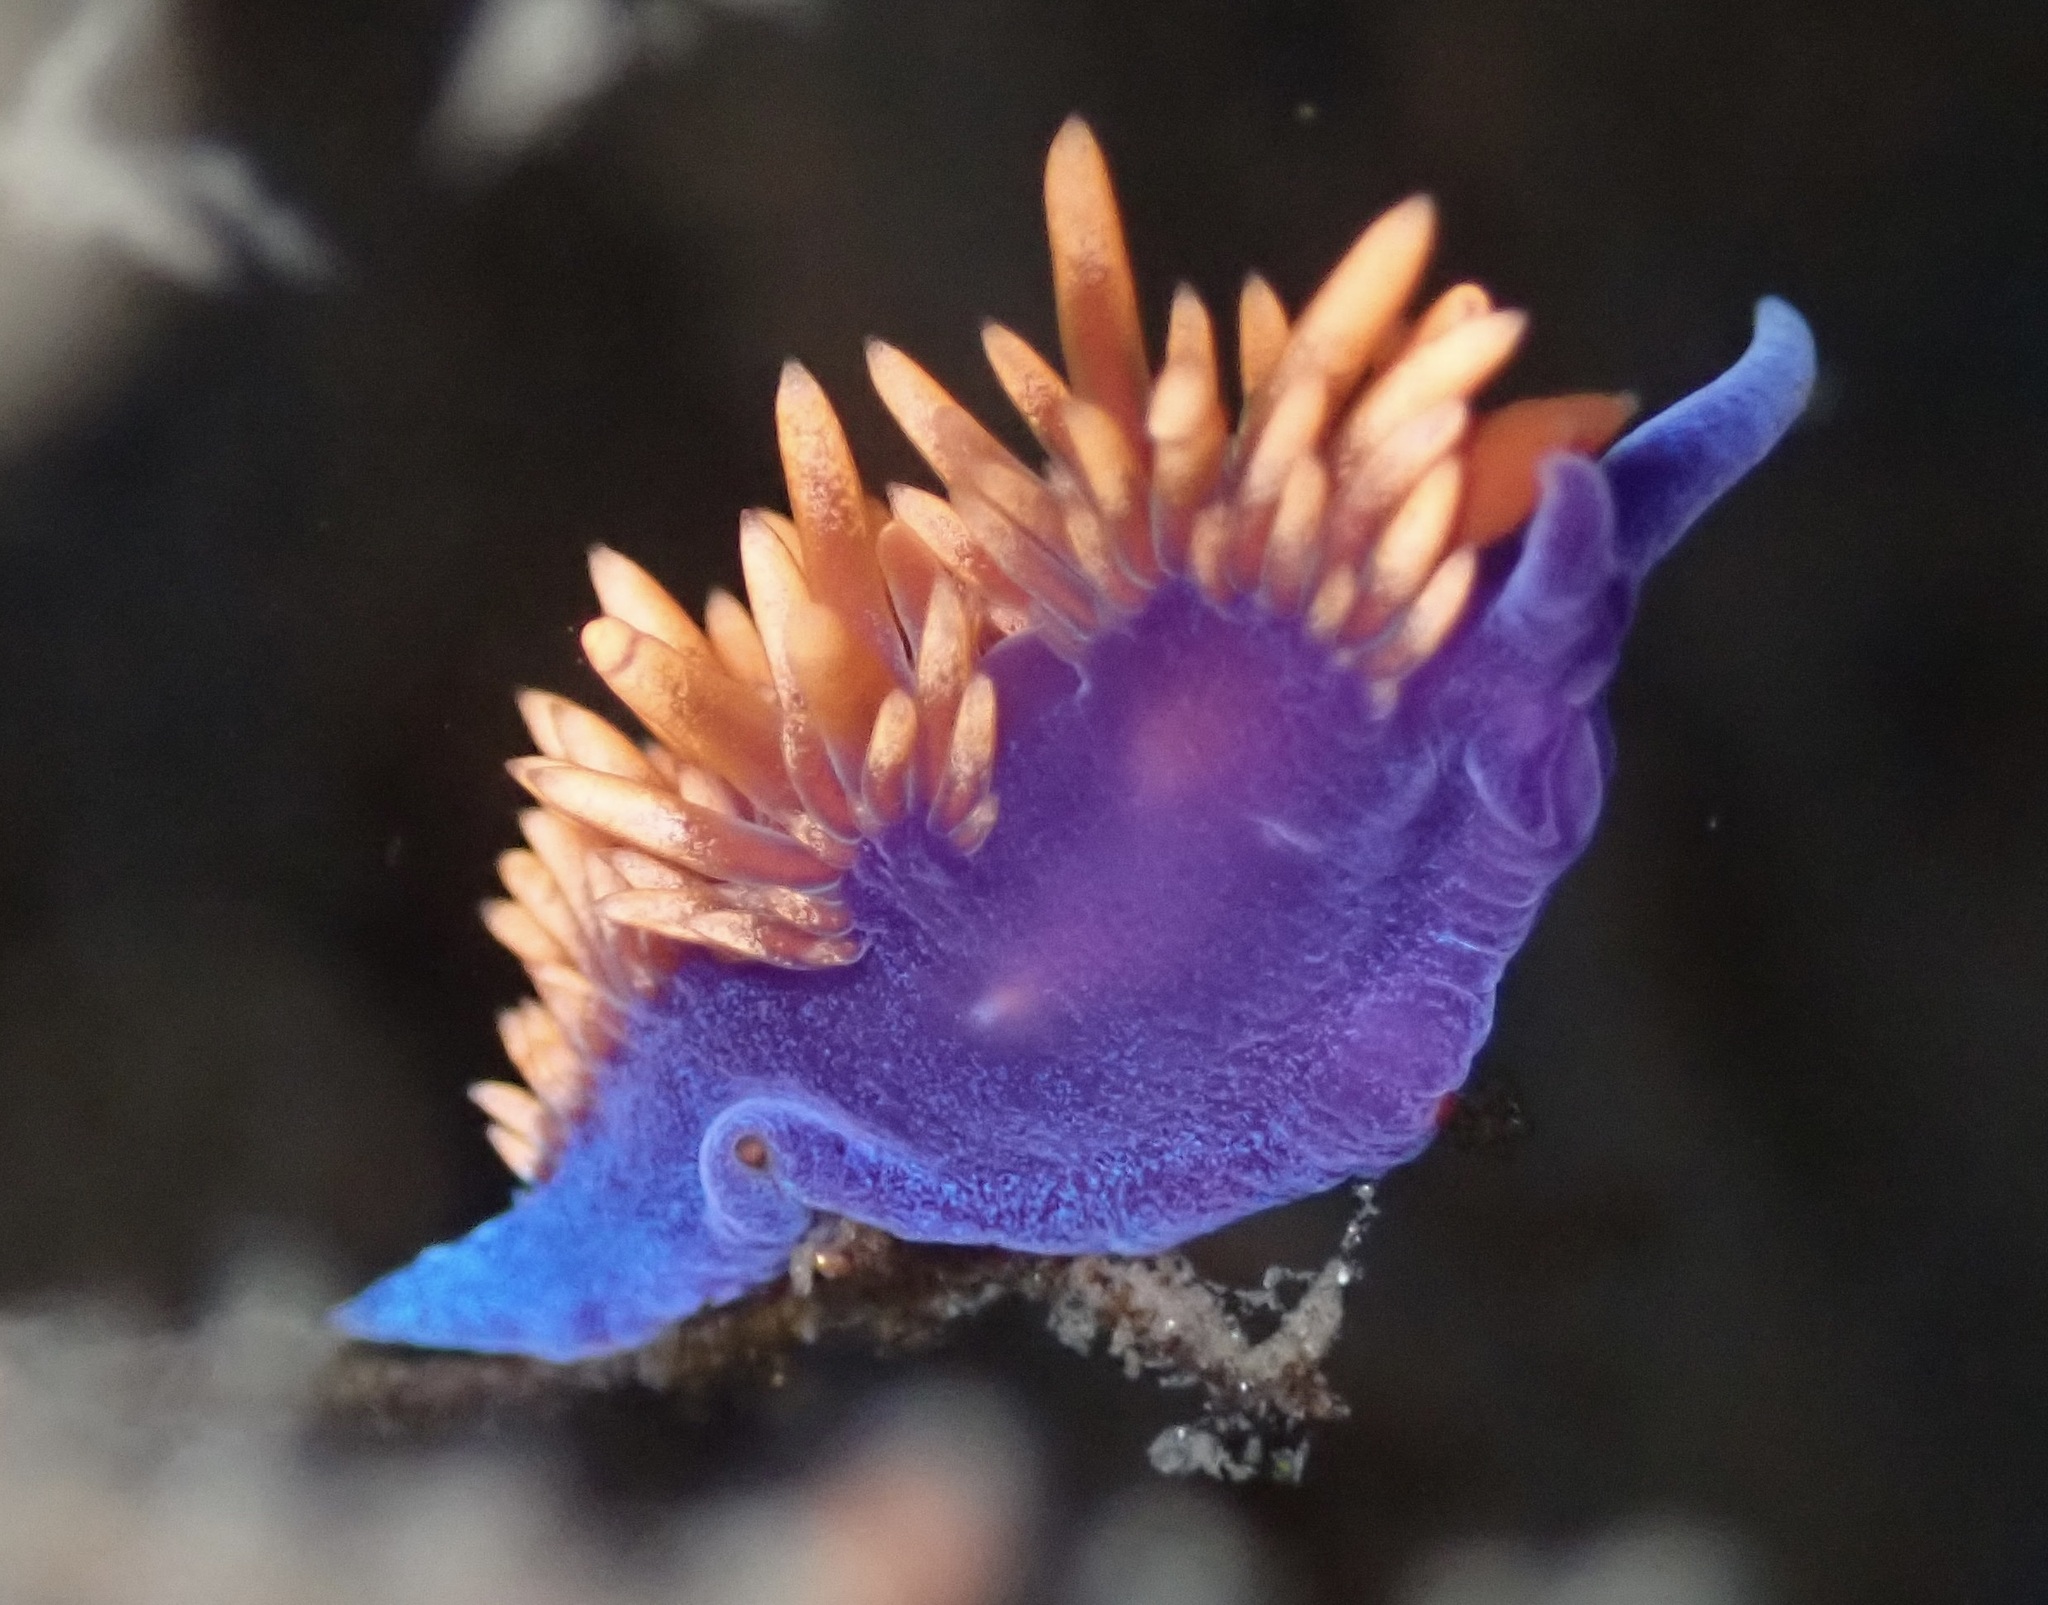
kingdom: Animalia
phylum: Mollusca
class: Gastropoda
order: Nudibranchia
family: Flabellinopsidae
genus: Flabellinopsis
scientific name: Flabellinopsis iodinea
